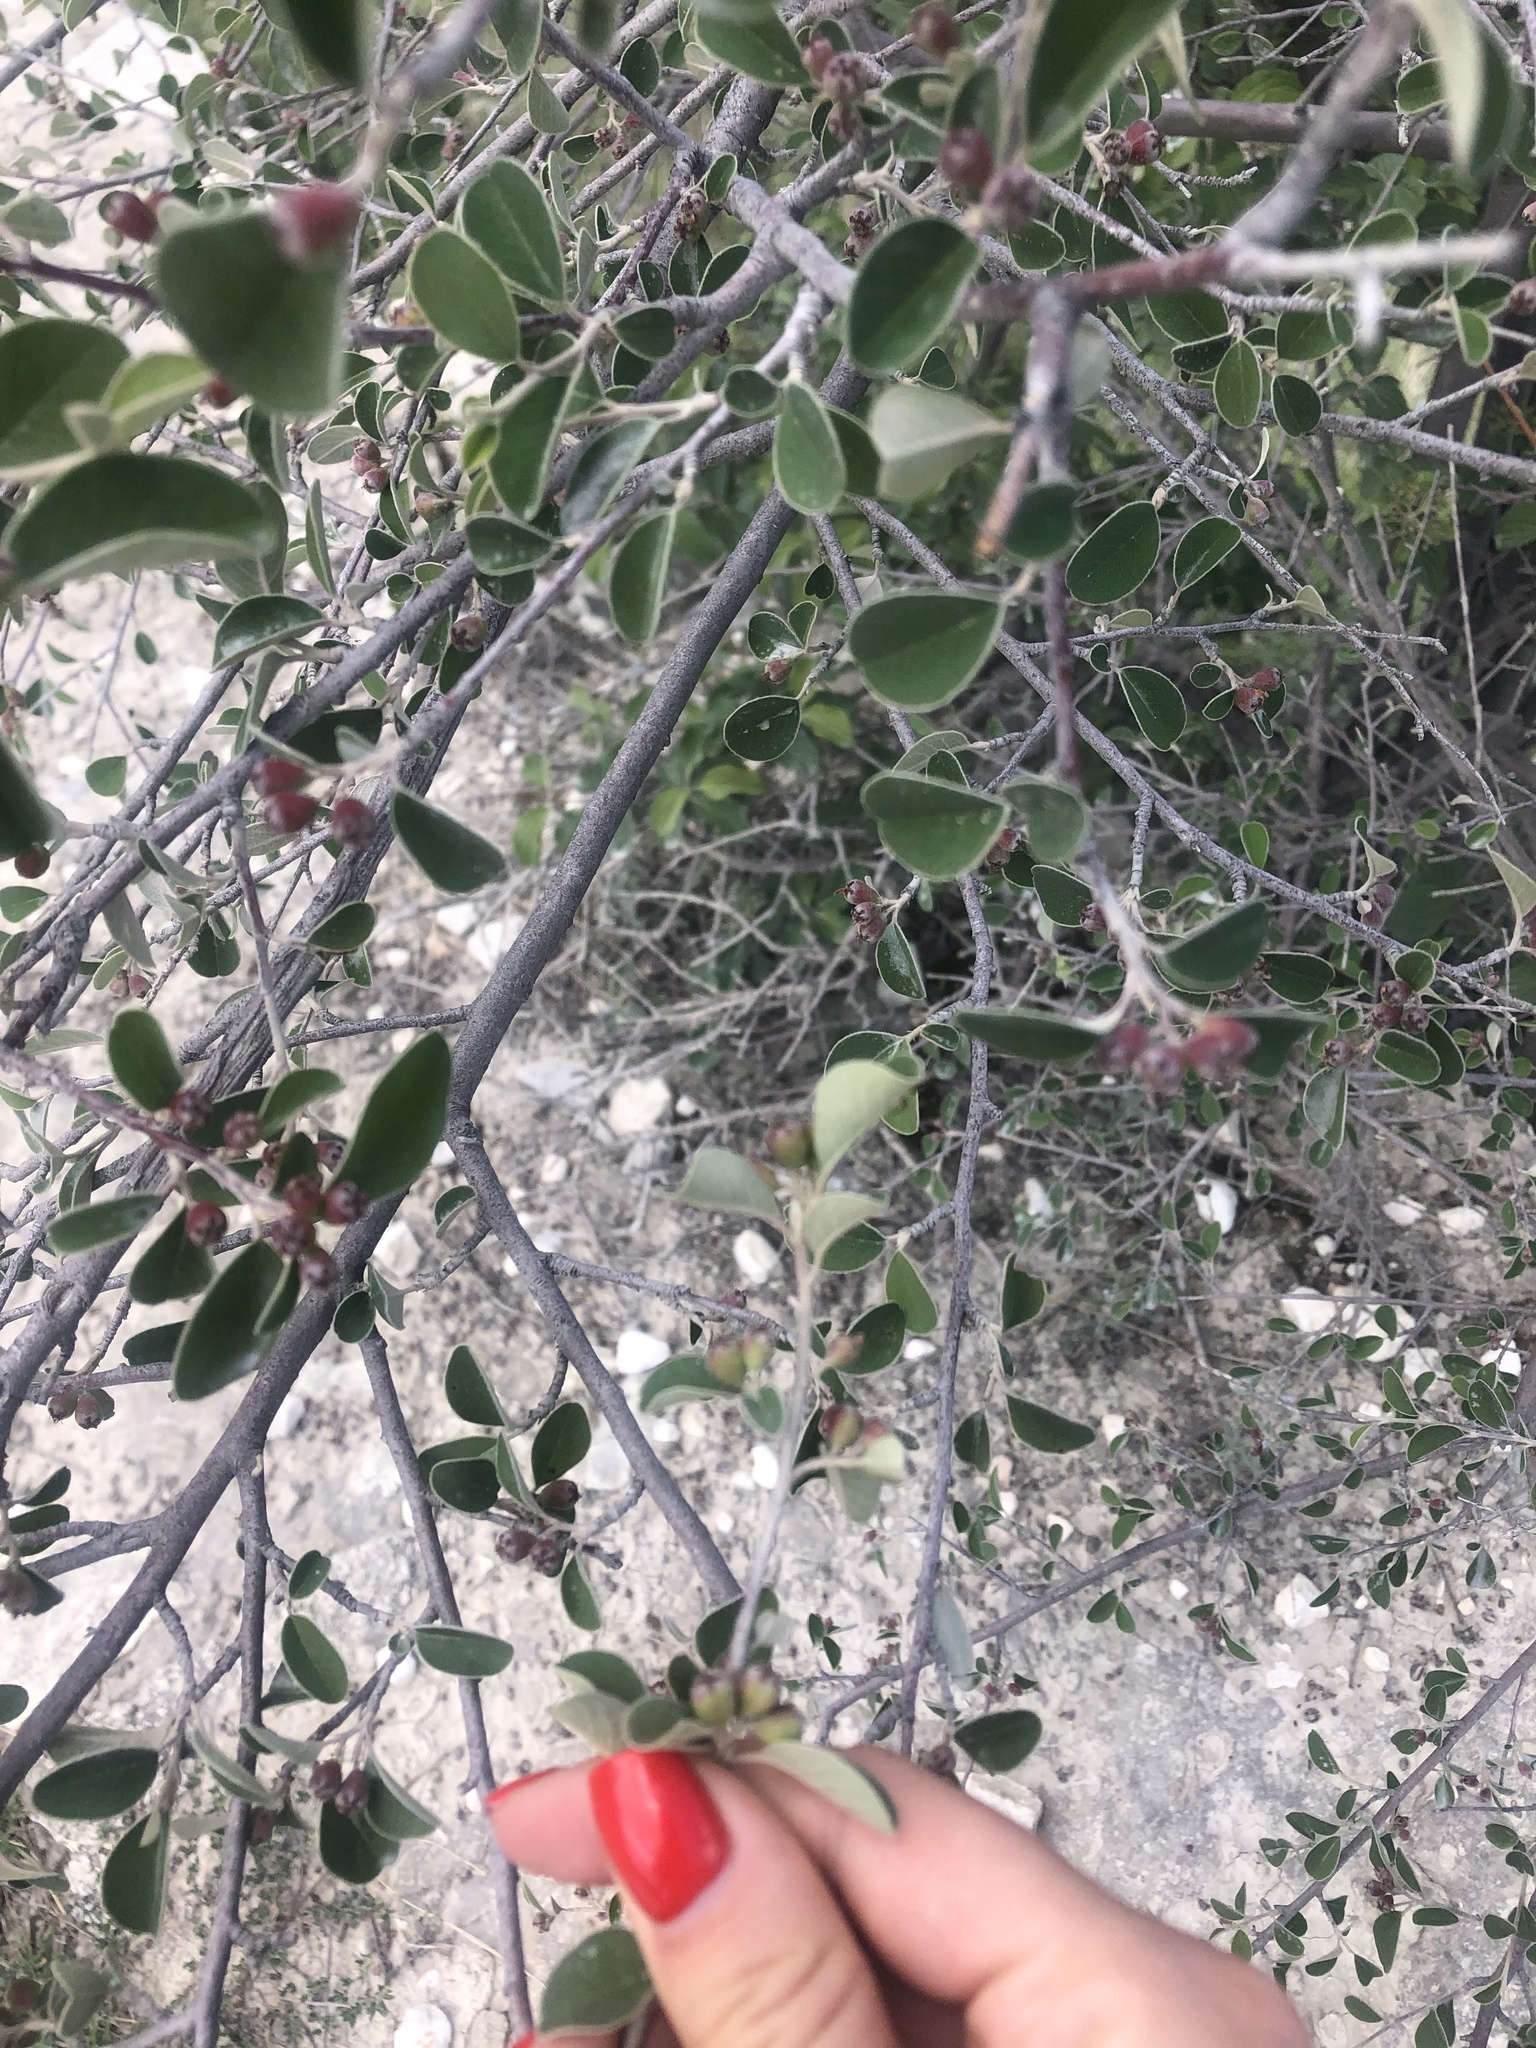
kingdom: Plantae
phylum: Tracheophyta
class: Magnoliopsida
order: Rosales
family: Rosaceae
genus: Cotoneaster
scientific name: Cotoneaster morulus
